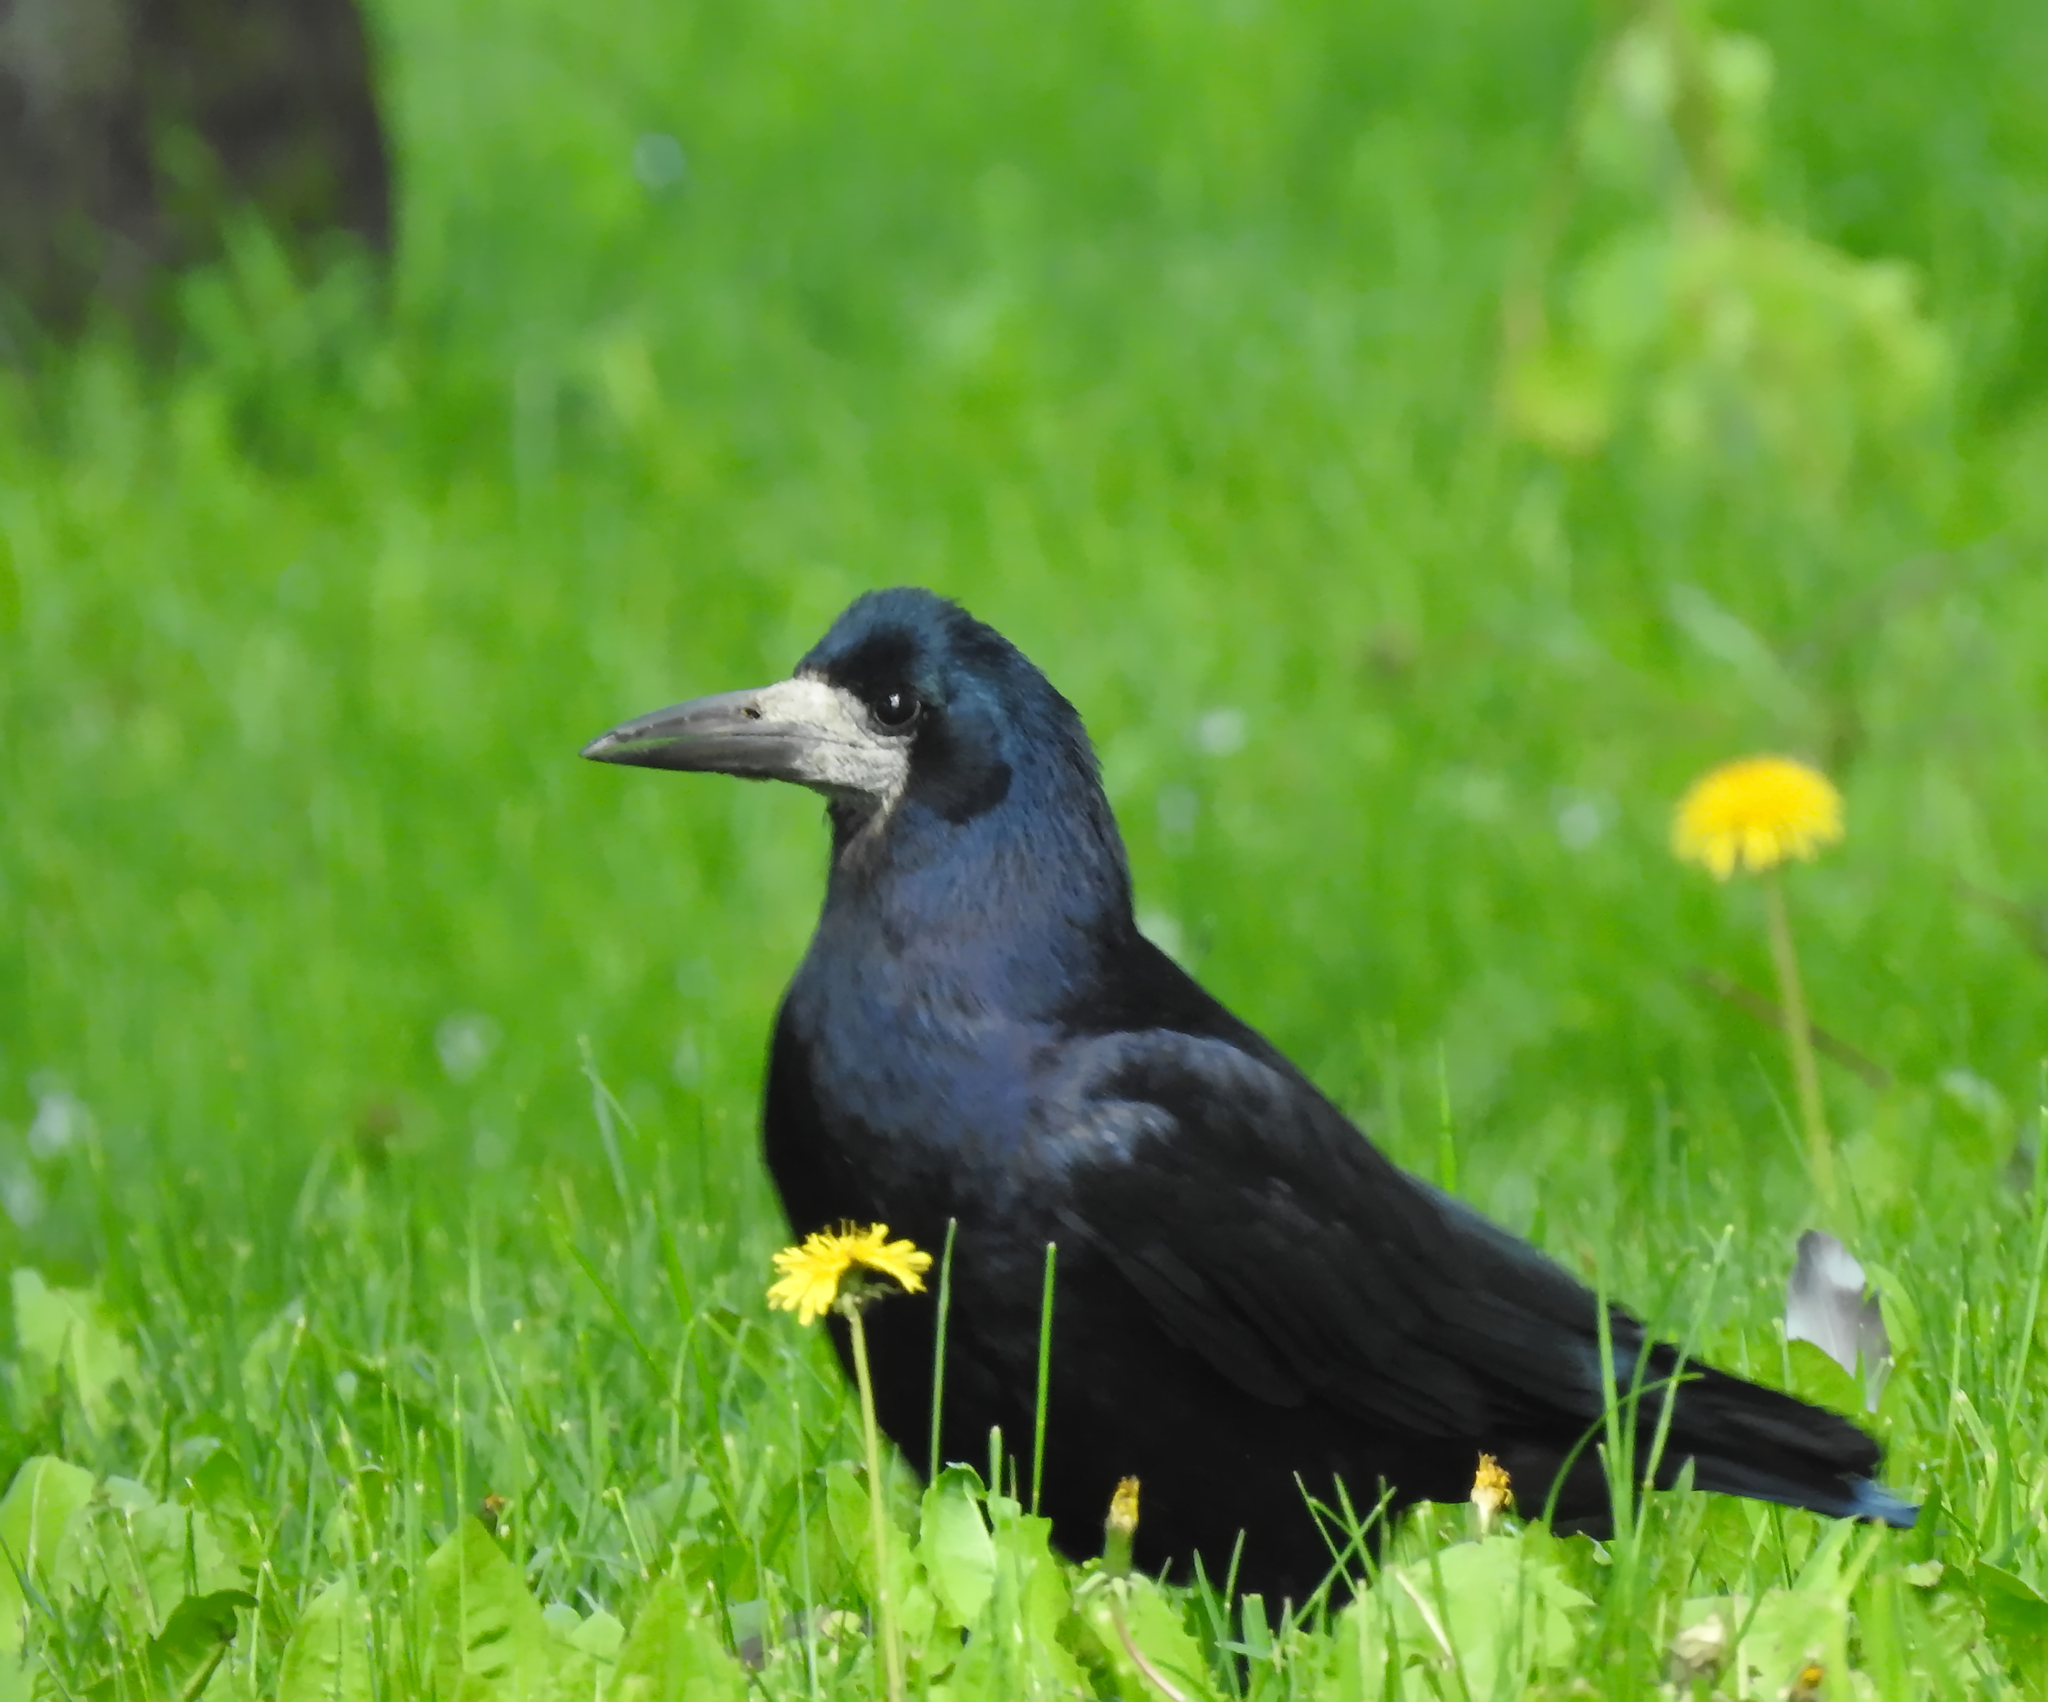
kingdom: Animalia
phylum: Chordata
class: Aves
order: Passeriformes
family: Corvidae
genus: Corvus
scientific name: Corvus frugilegus
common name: Rook
